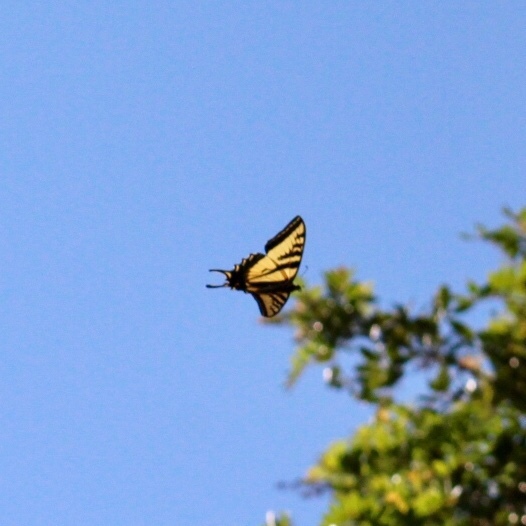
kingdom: Animalia
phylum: Arthropoda
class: Insecta
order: Lepidoptera
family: Papilionidae
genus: Papilio
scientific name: Papilio rutulus
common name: Western tiger swallowtail
